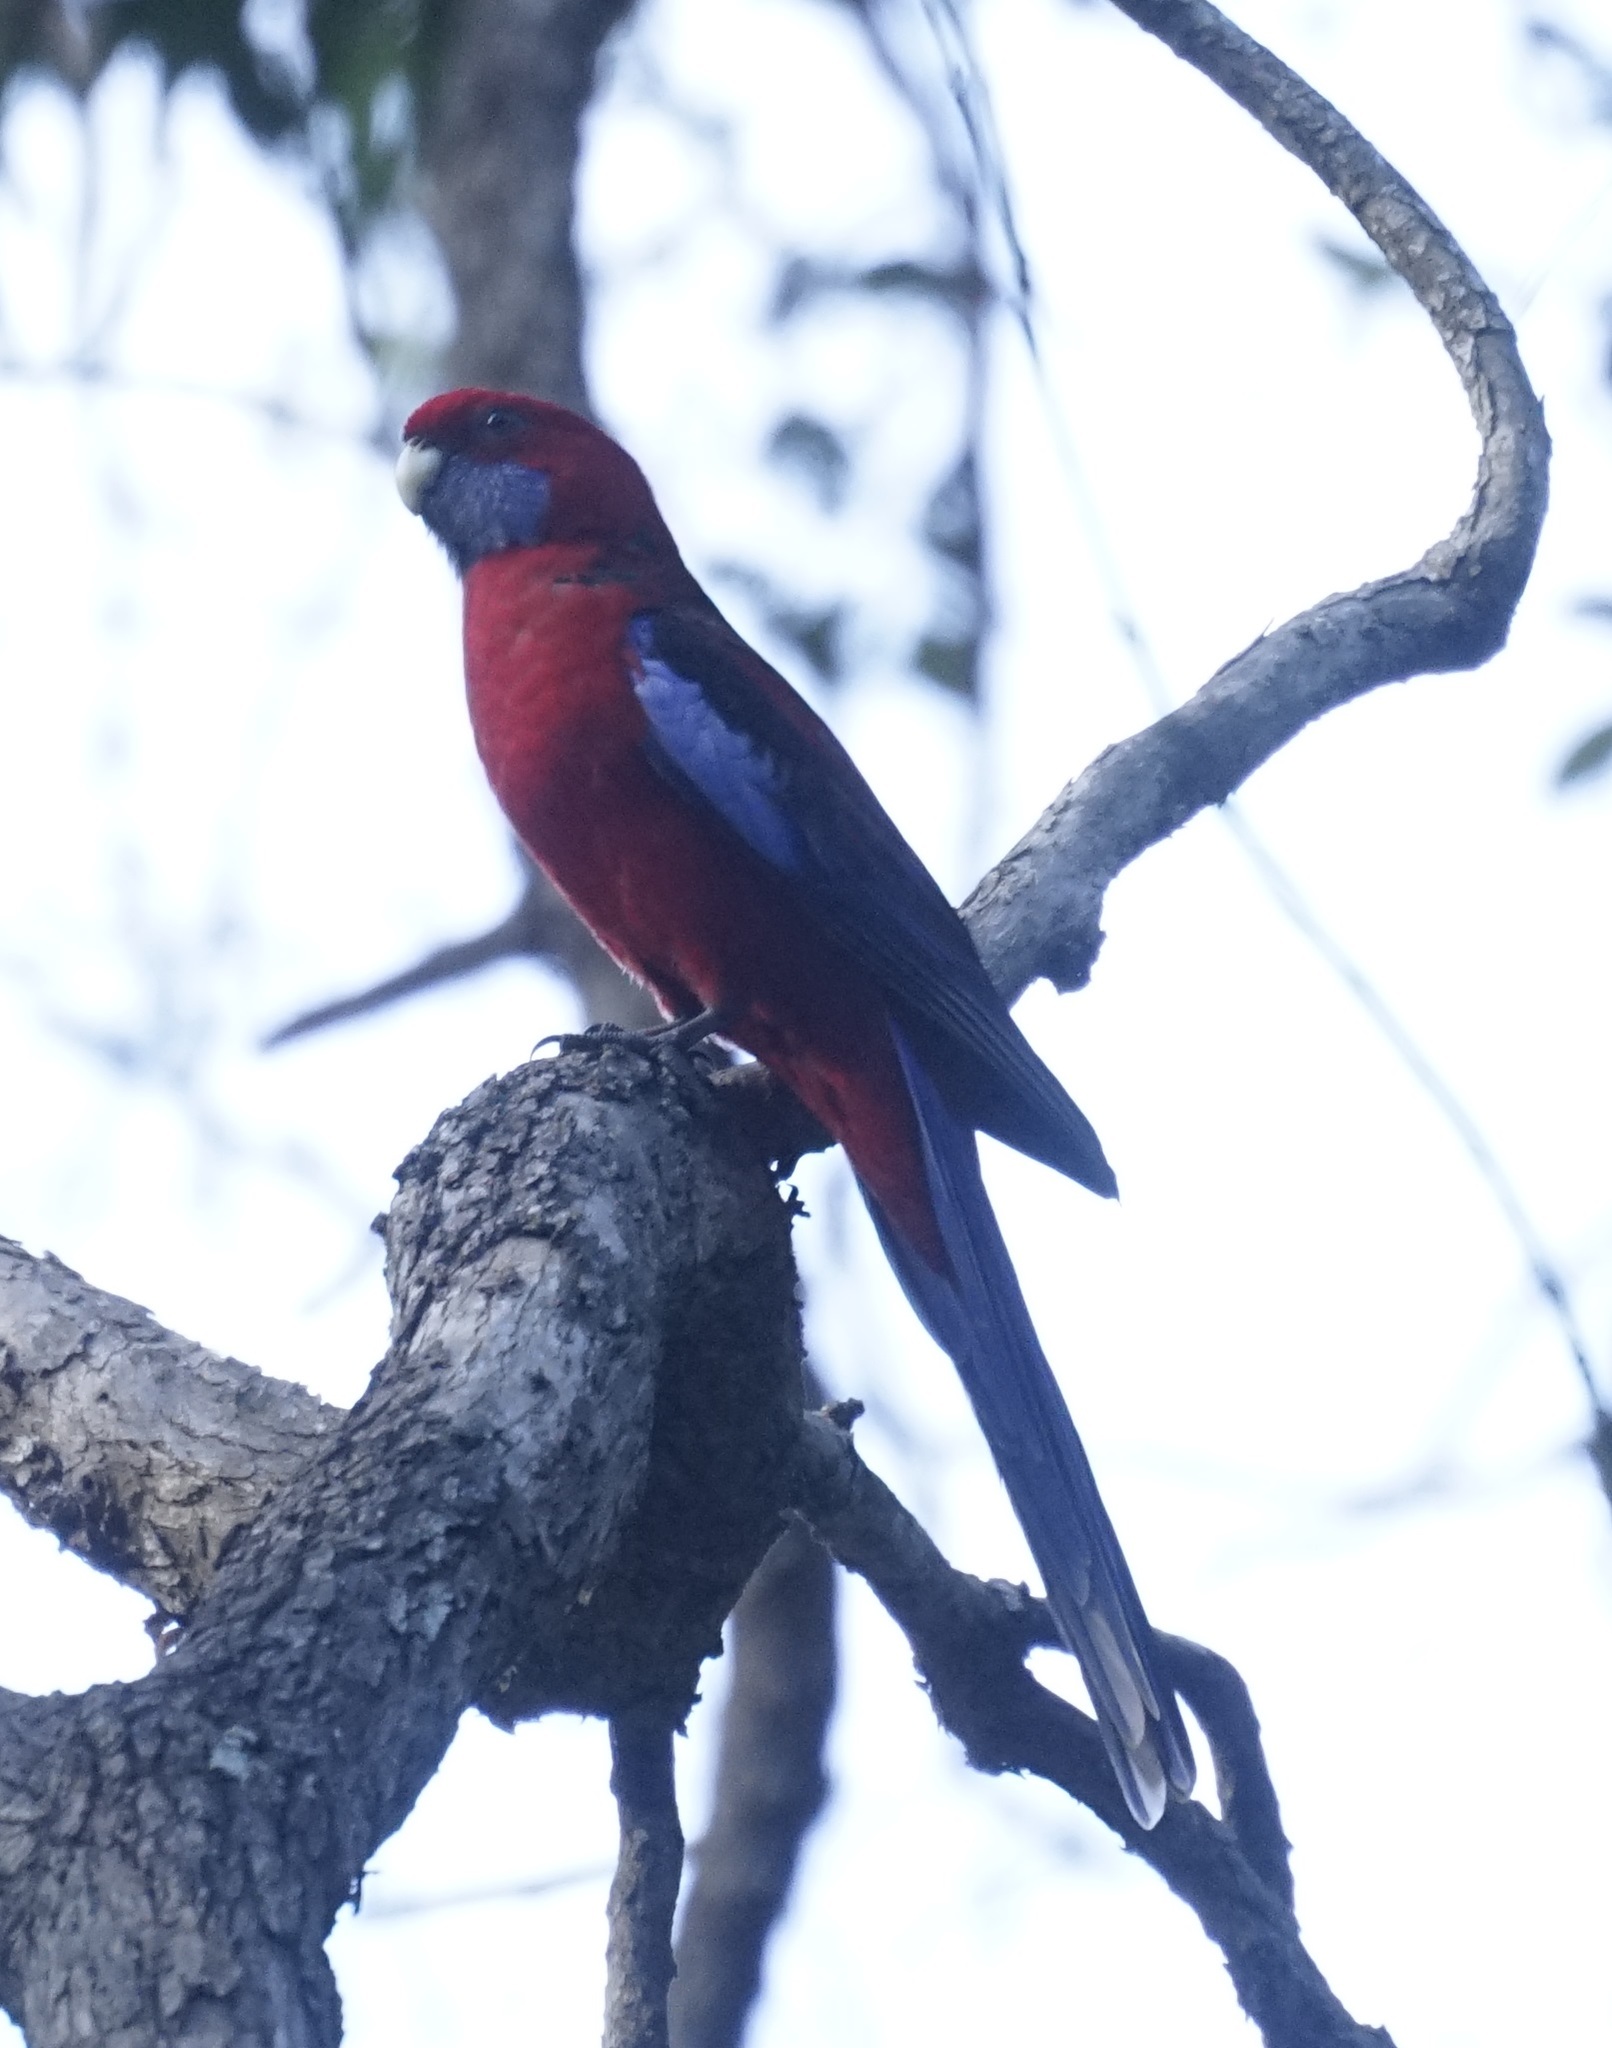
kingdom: Animalia
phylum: Chordata
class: Aves
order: Psittaciformes
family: Psittacidae
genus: Platycercus
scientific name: Platycercus elegans
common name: Crimson rosella
